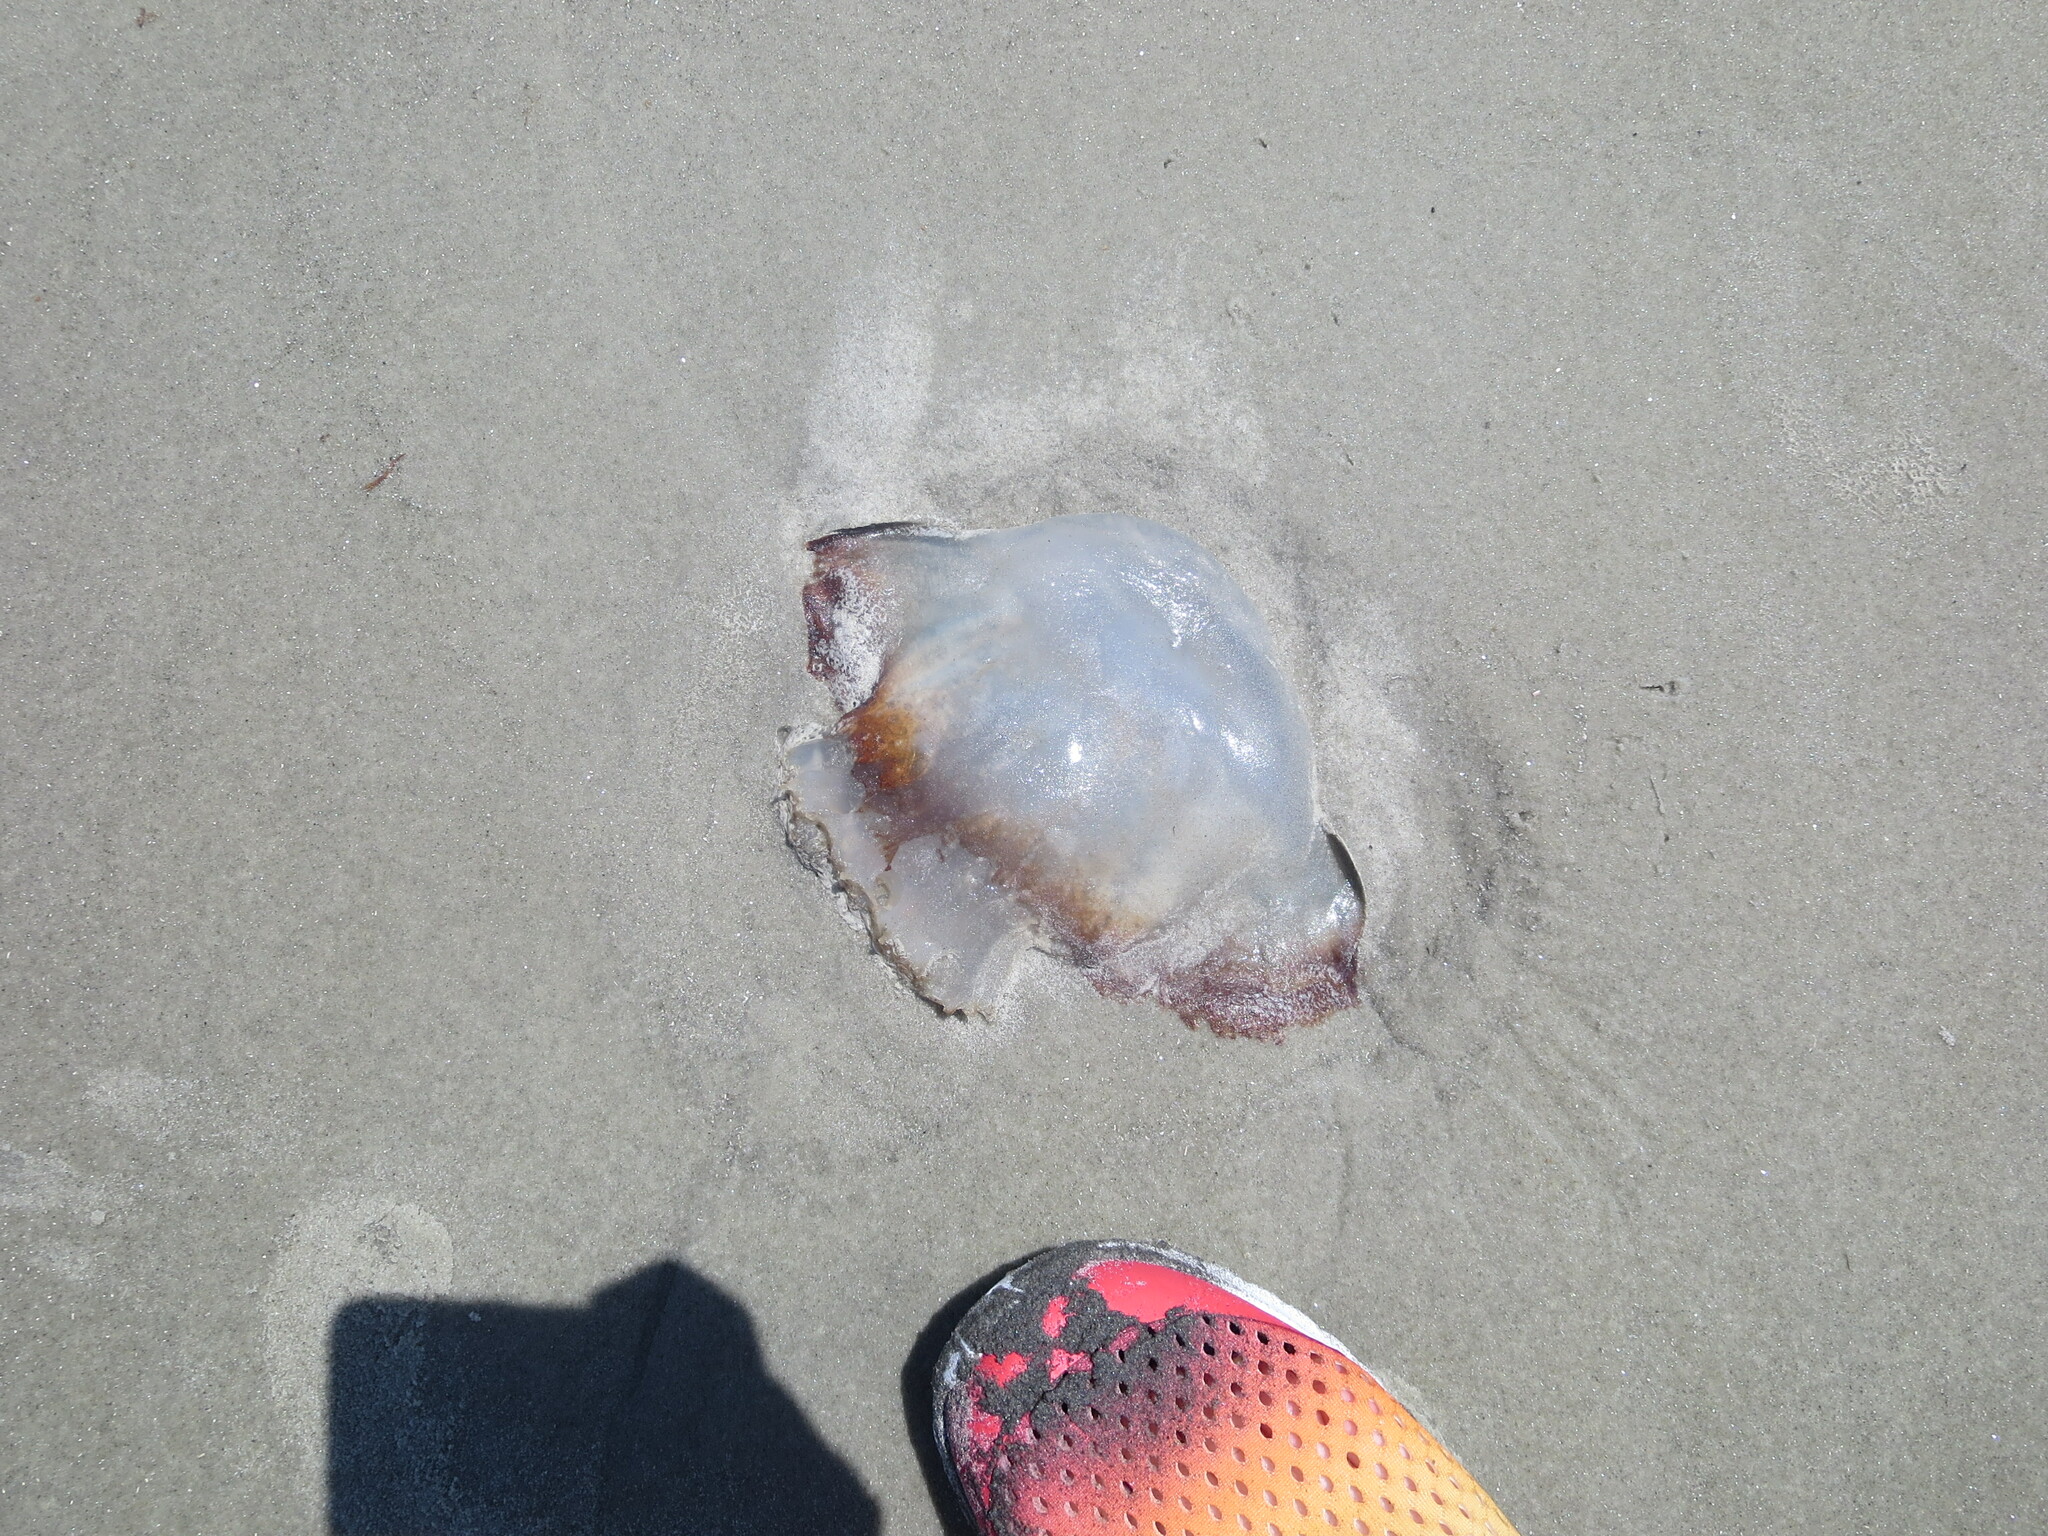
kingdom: Animalia
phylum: Cnidaria
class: Scyphozoa
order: Rhizostomeae
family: Stomolophidae
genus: Stomolophus
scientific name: Stomolophus meleagris
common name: Cabbagehead
